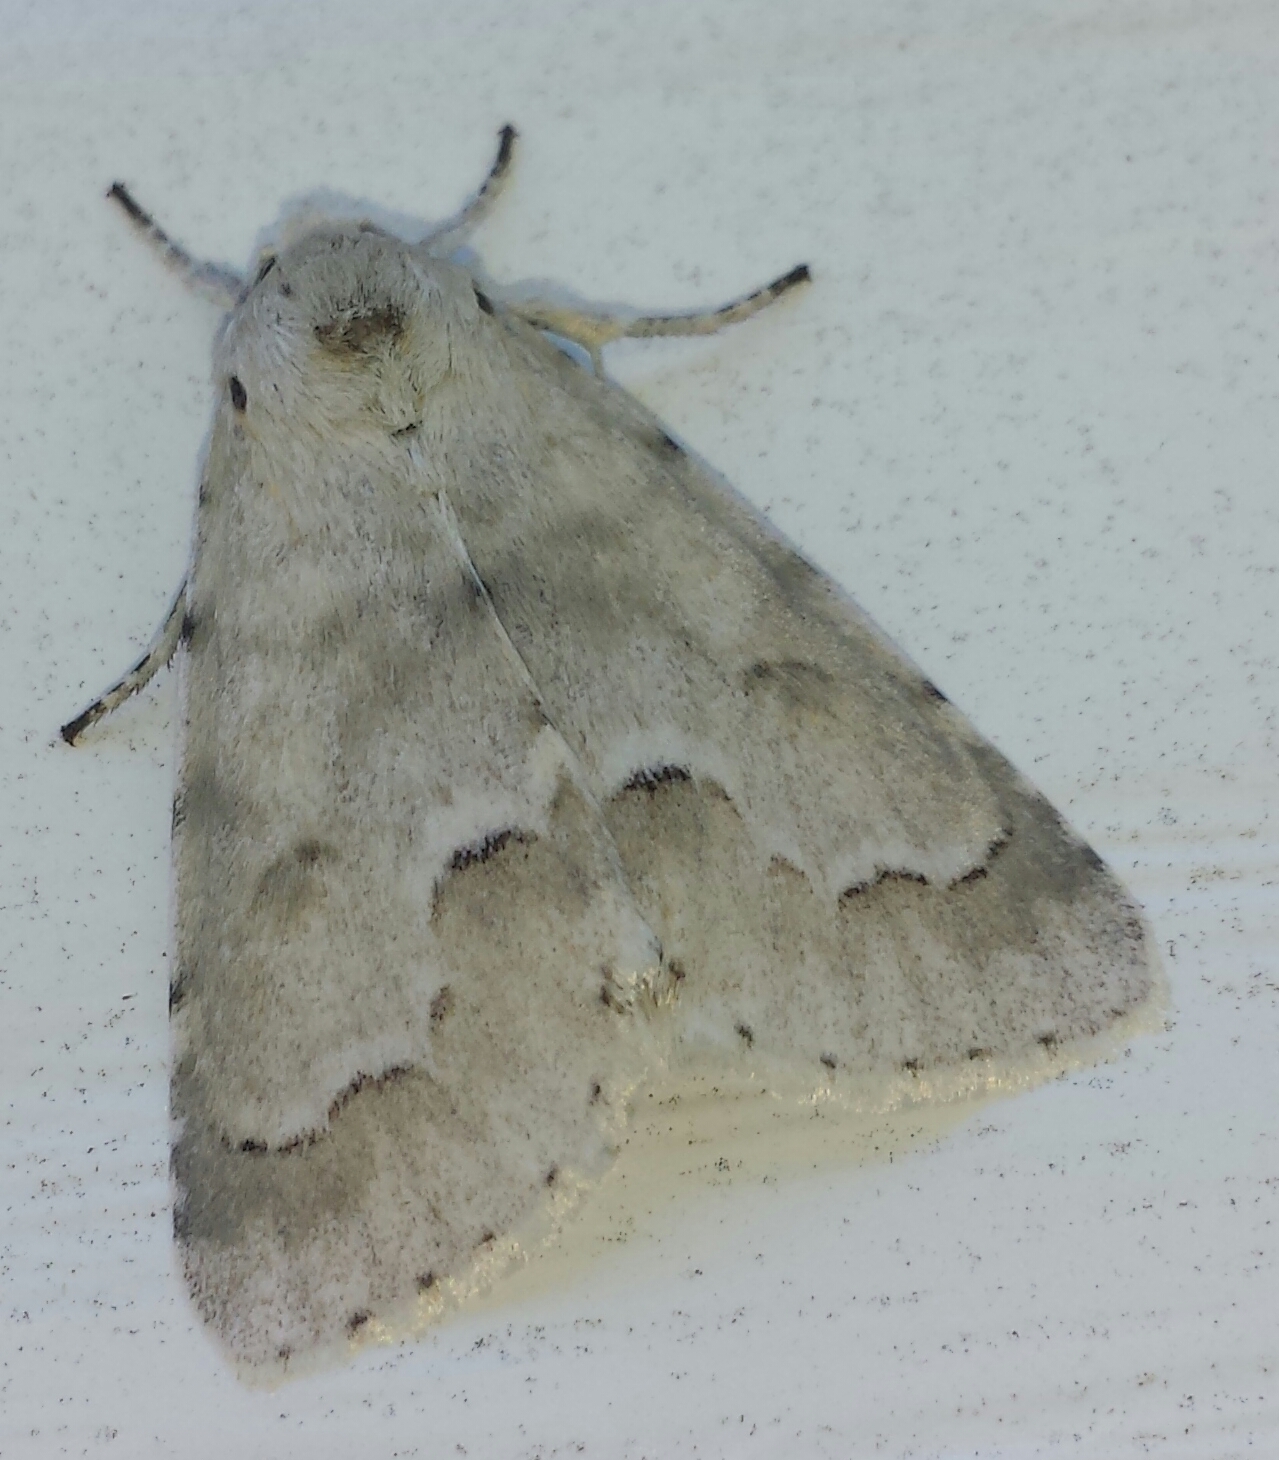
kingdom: Animalia
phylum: Arthropoda
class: Insecta
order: Lepidoptera
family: Noctuidae
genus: Acronicta
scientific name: Acronicta innotata
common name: Unmarked dagger
